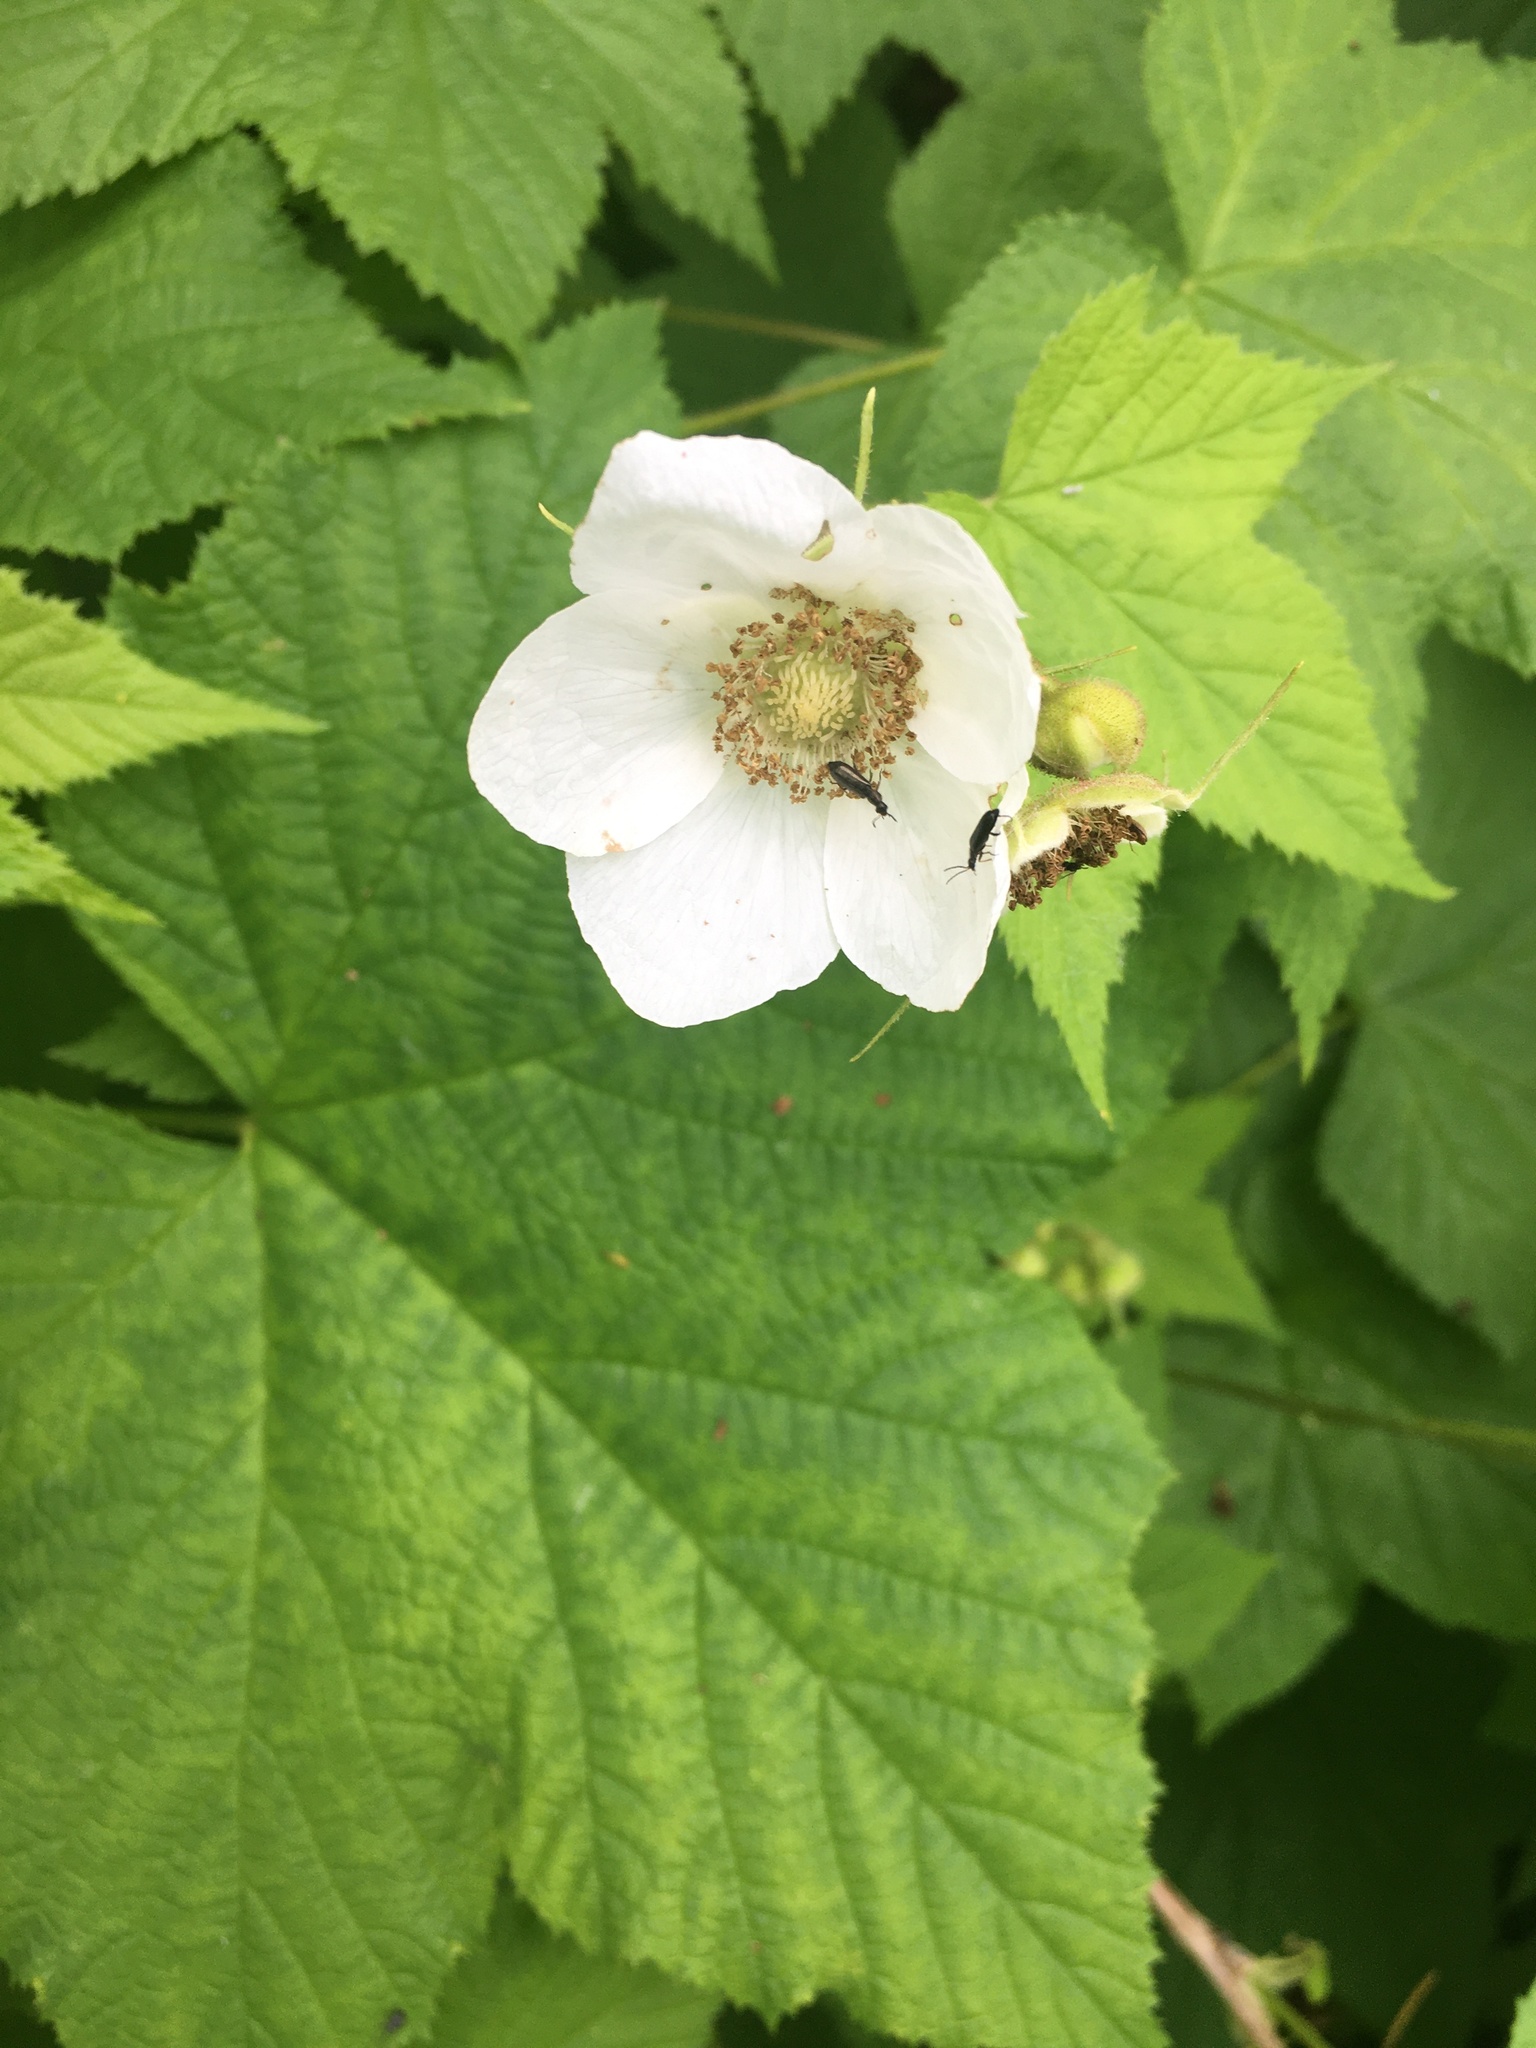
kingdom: Plantae
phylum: Tracheophyta
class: Magnoliopsida
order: Rosales
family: Rosaceae
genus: Rubus
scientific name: Rubus parviflorus
